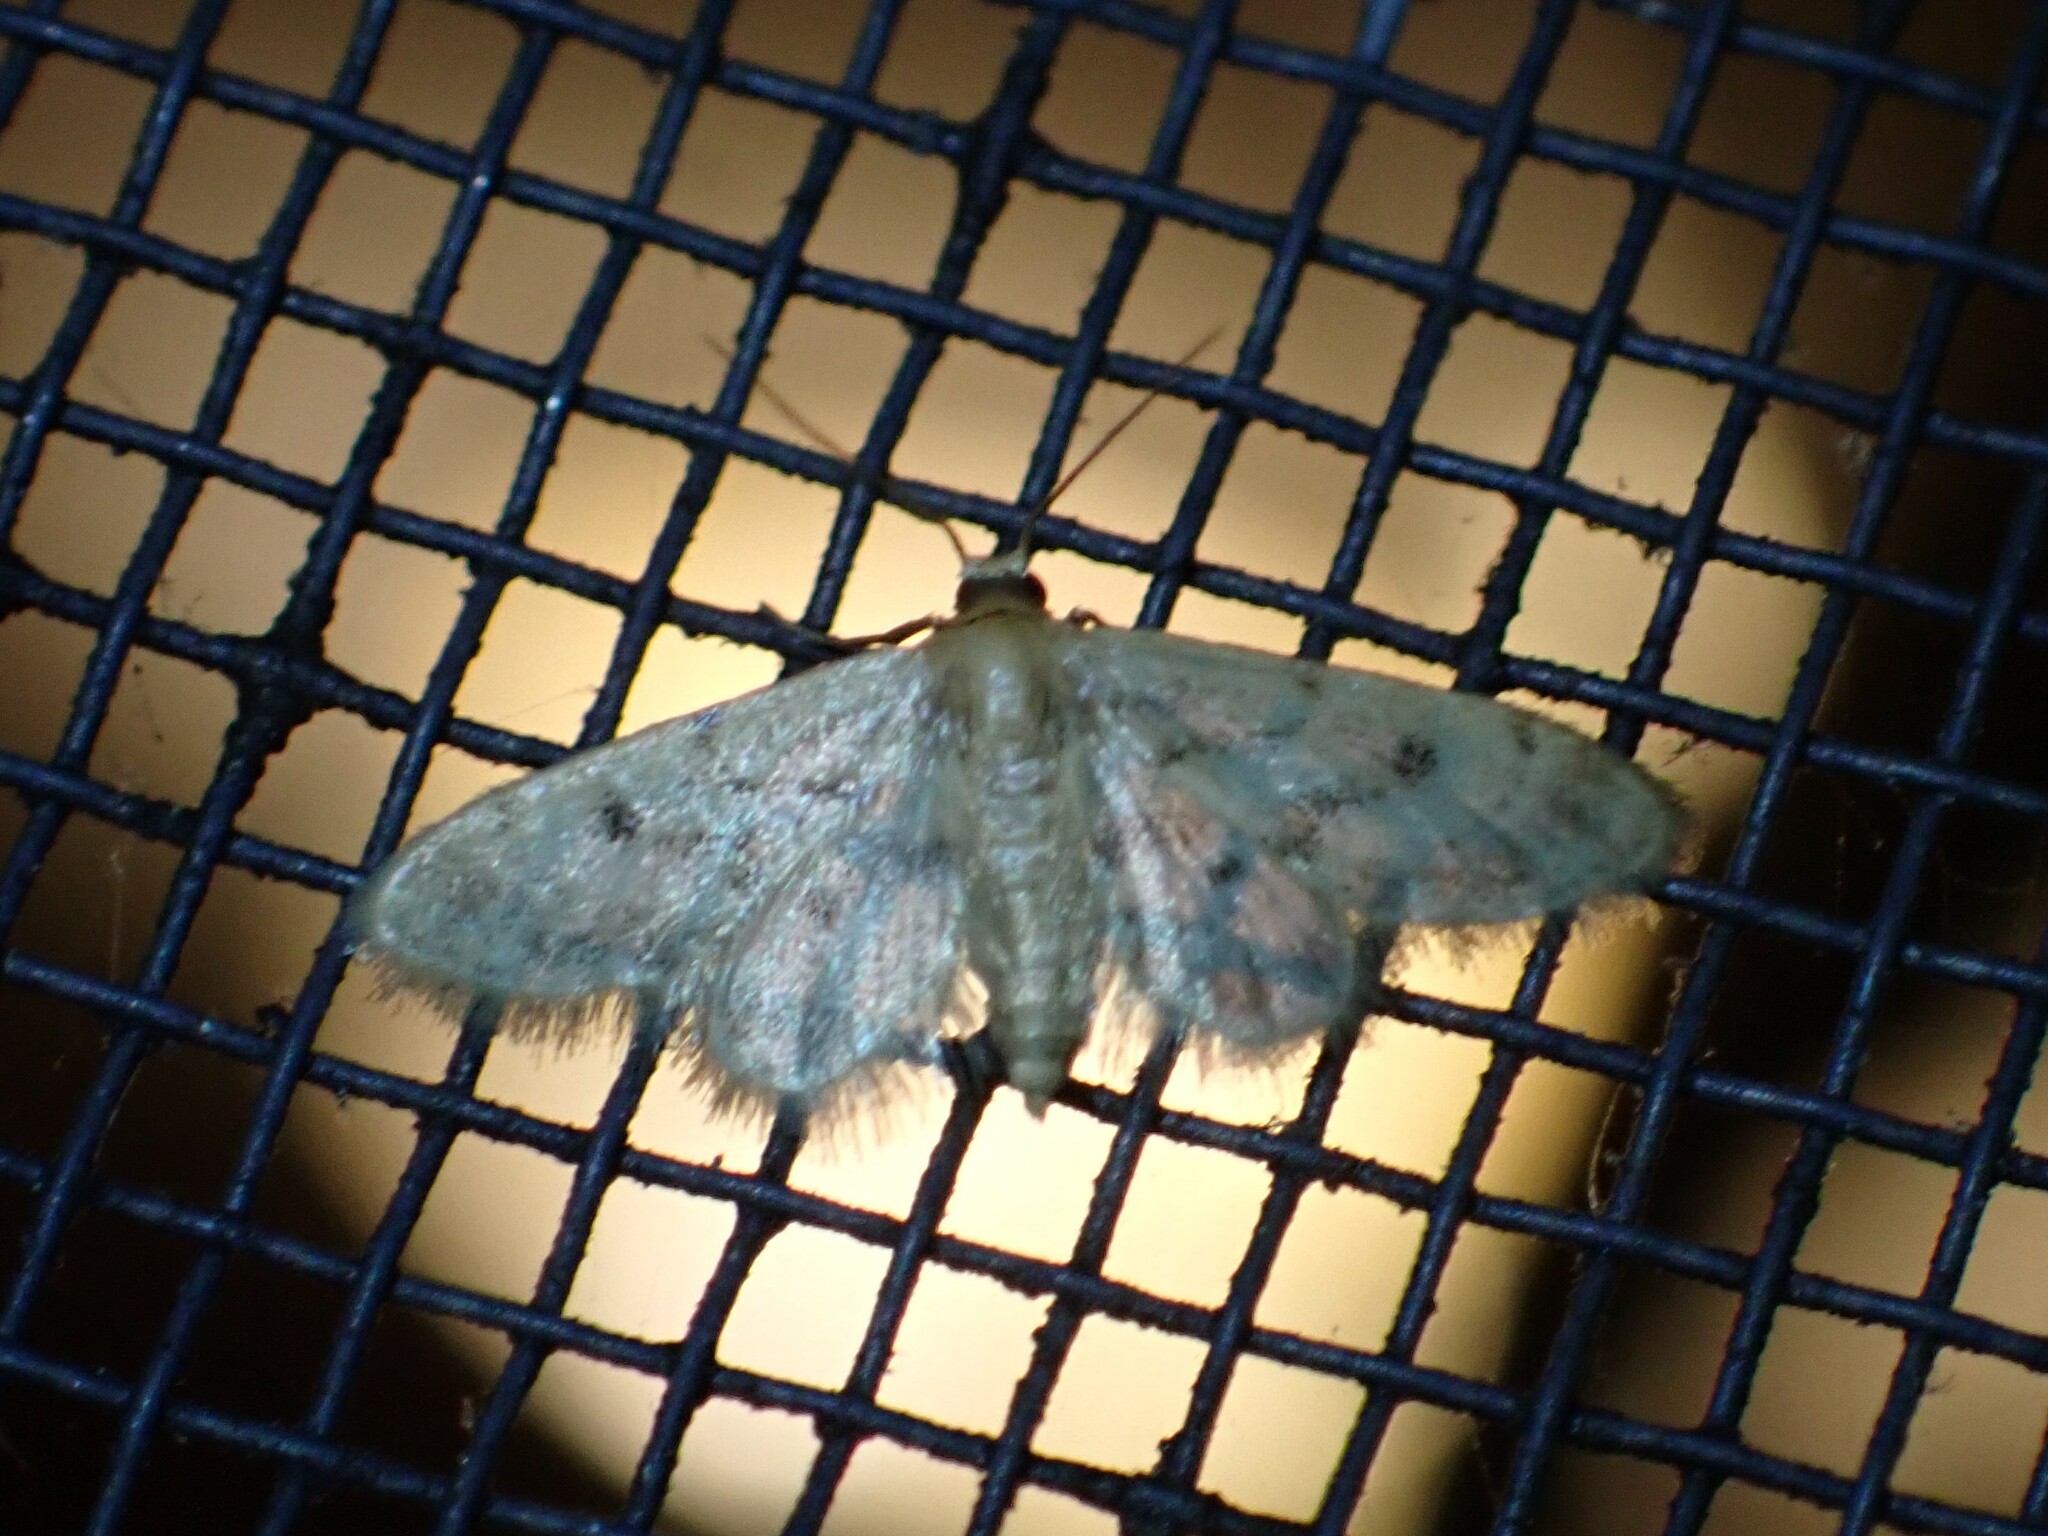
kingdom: Animalia
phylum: Arthropoda
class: Insecta
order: Lepidoptera
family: Geometridae
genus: Idaea
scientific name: Idaea bonifata
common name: Fortunate wave
